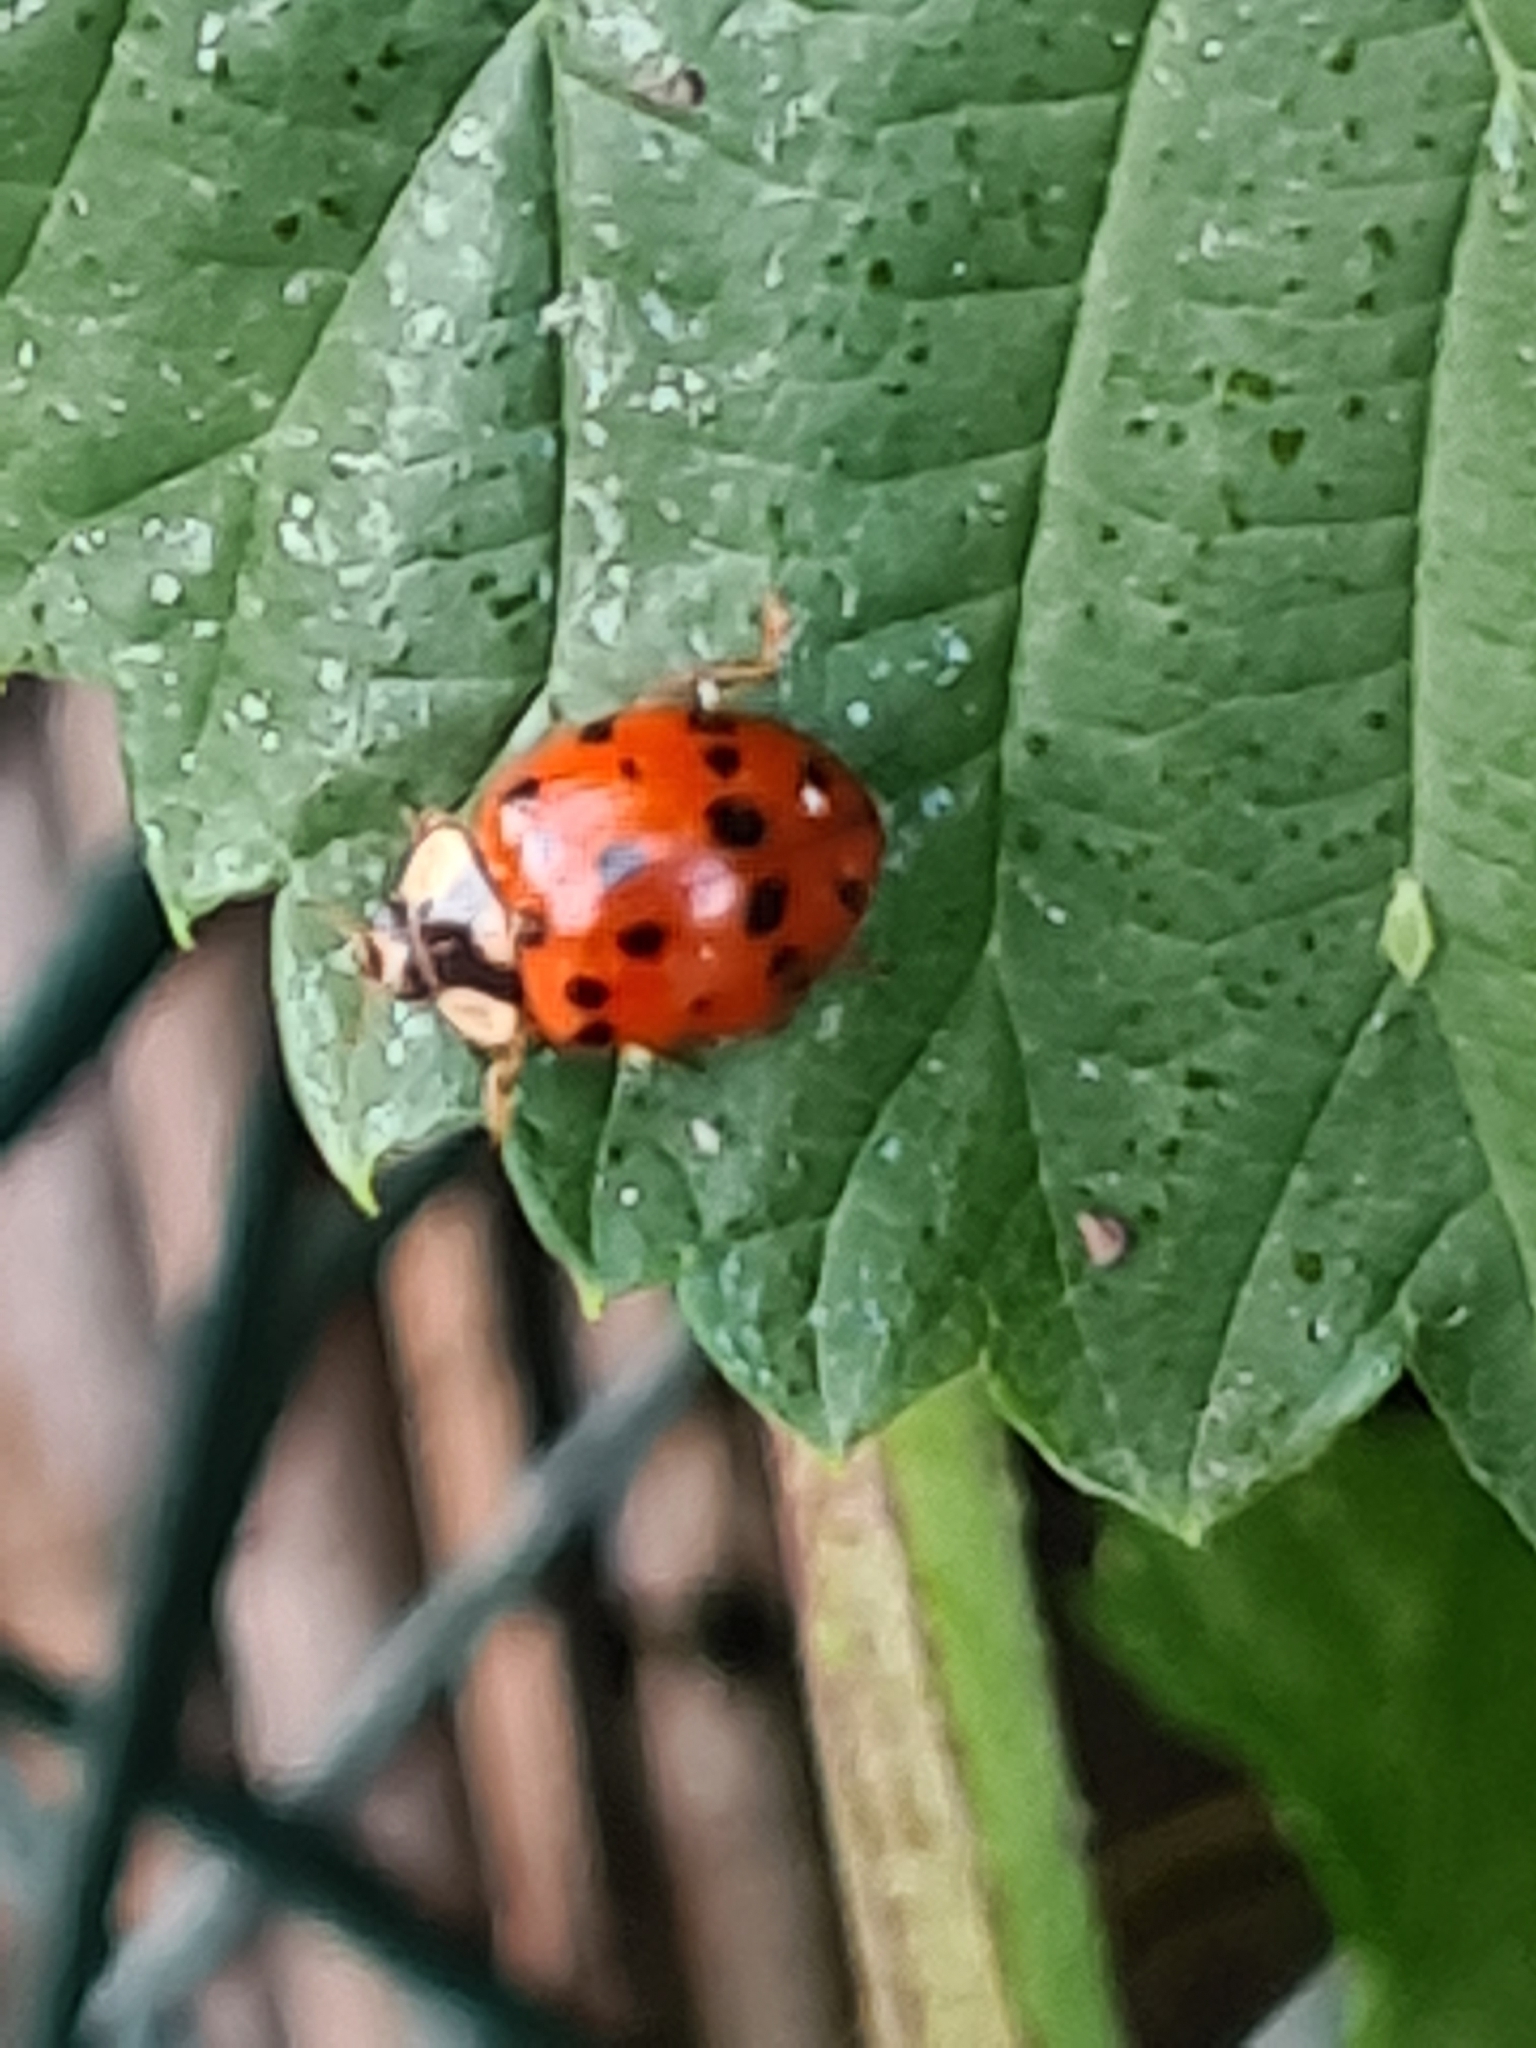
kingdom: Animalia
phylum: Arthropoda
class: Insecta
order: Coleoptera
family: Coccinellidae
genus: Harmonia
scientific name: Harmonia axyridis
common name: Harlequin ladybird
